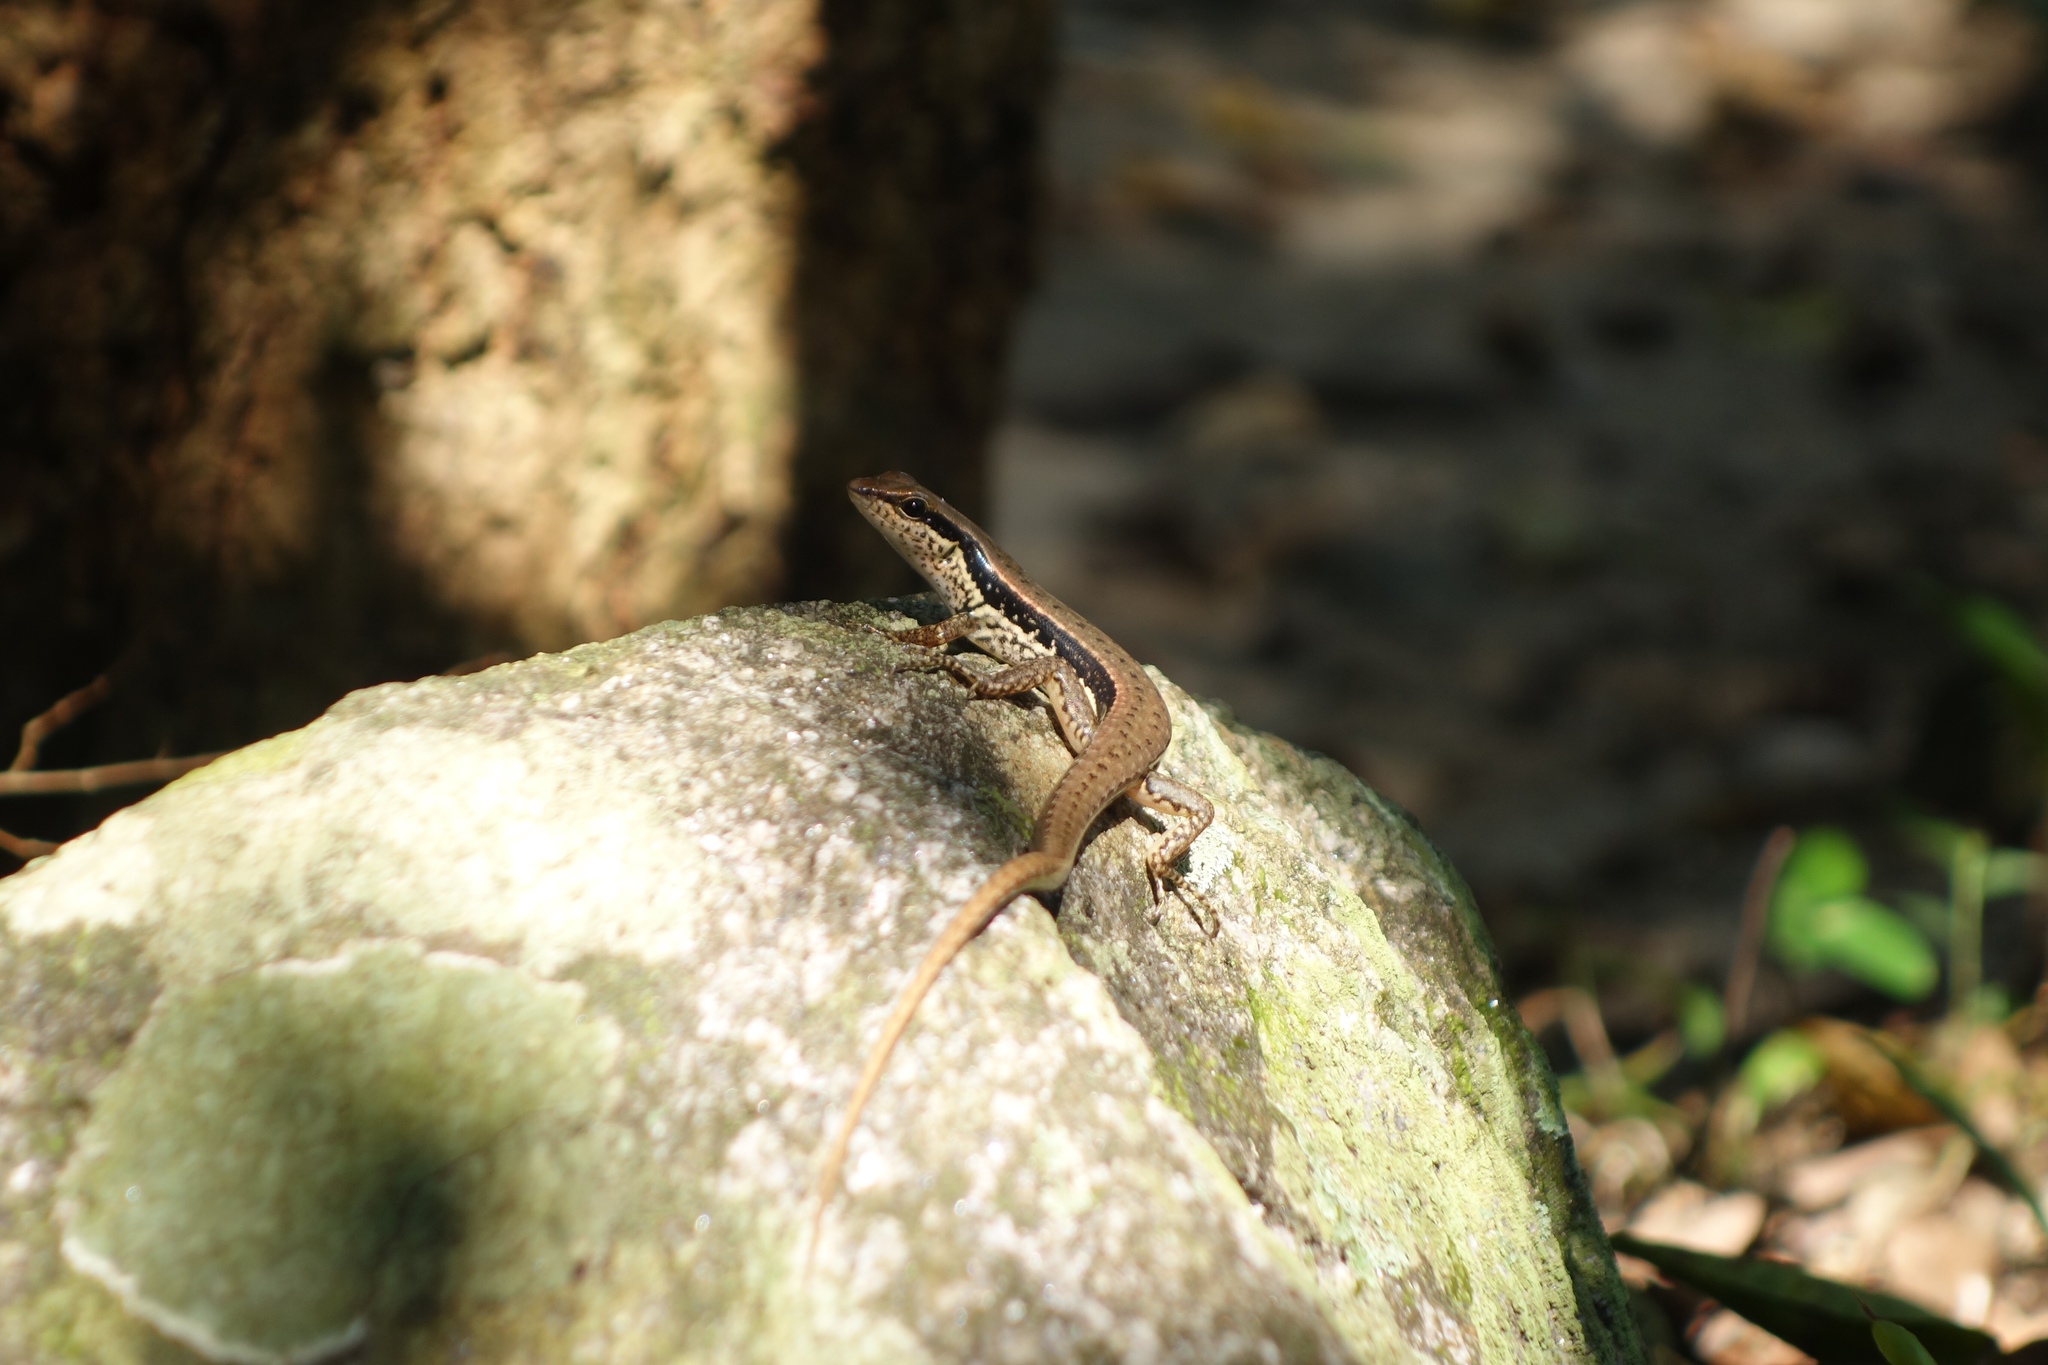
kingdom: Animalia
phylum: Chordata
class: Squamata
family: Scincidae
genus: Sphenomorphus
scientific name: Sphenomorphus maculatus
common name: Maculated forest skink
